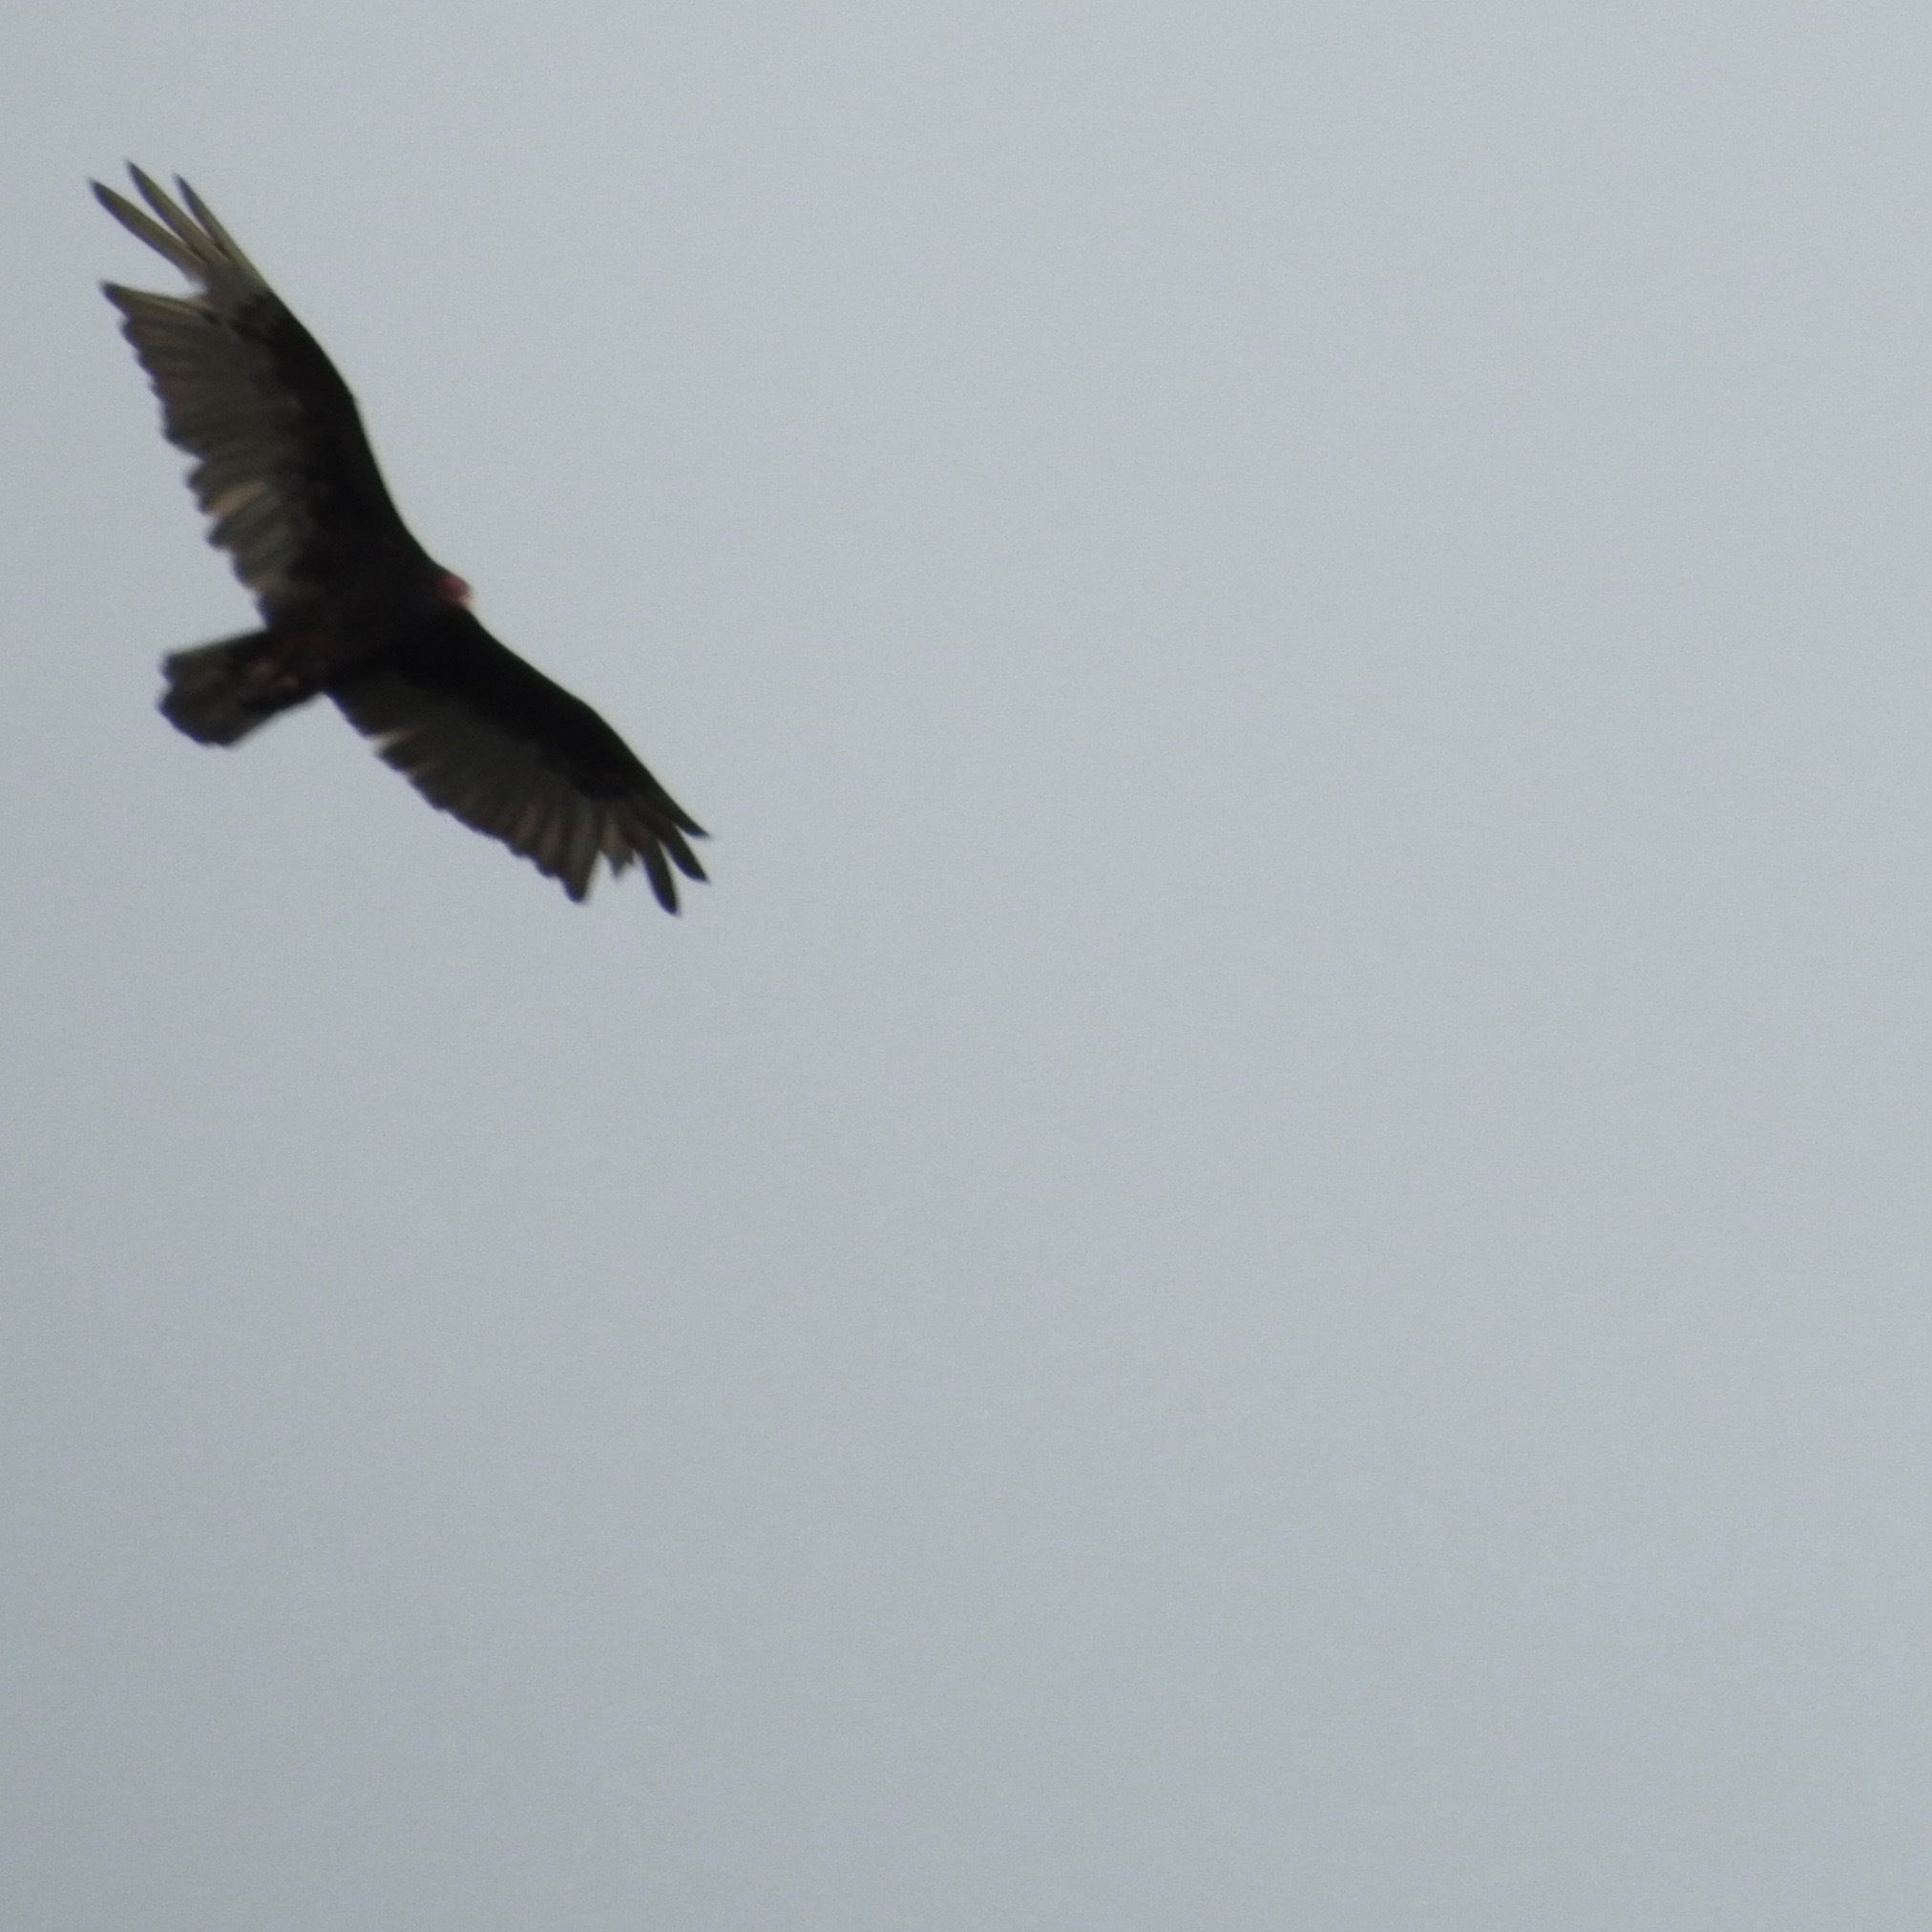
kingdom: Animalia
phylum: Chordata
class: Aves
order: Accipitriformes
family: Cathartidae
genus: Cathartes
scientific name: Cathartes aura
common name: Turkey vulture
